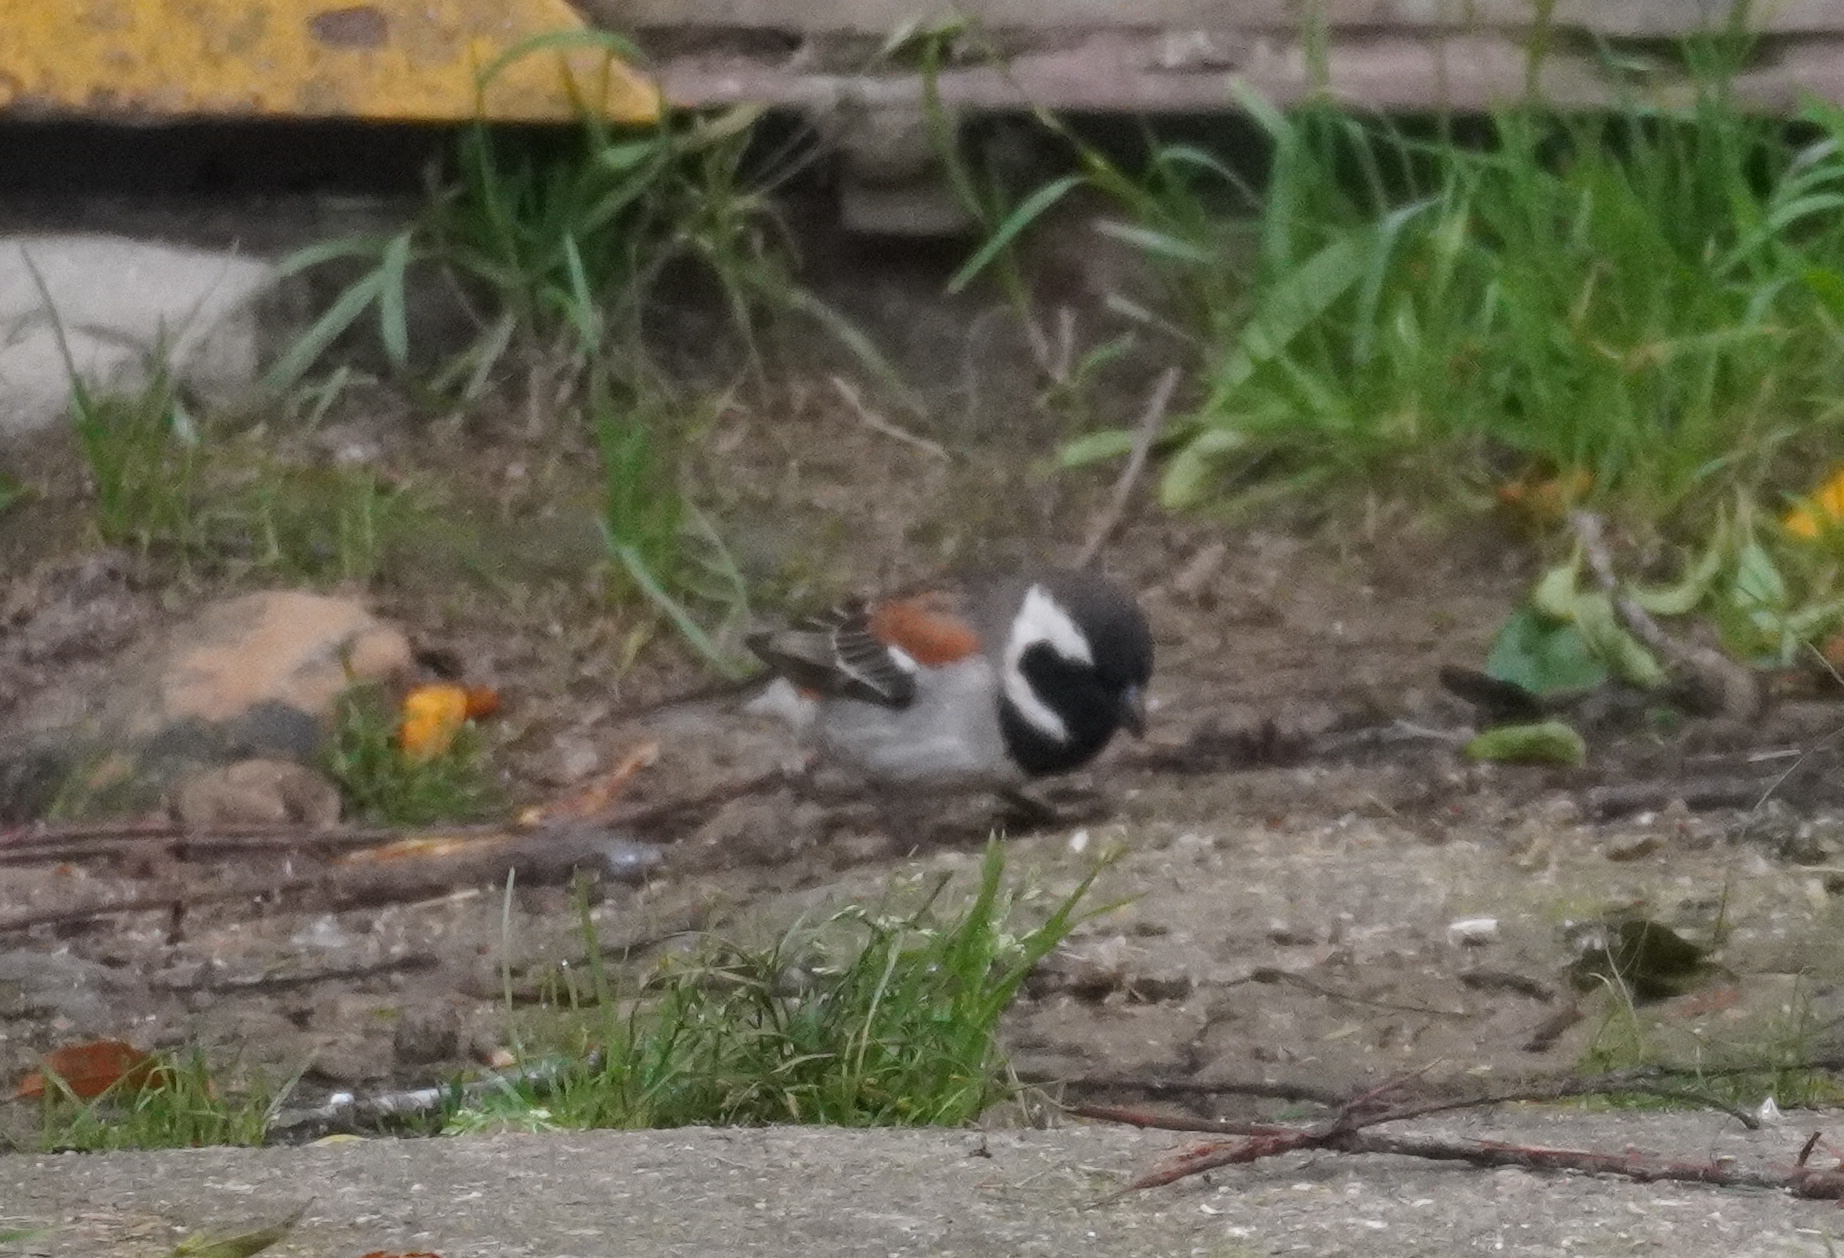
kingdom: Animalia
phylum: Chordata
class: Aves
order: Passeriformes
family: Passeridae
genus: Passer
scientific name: Passer melanurus
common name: Cape sparrow
